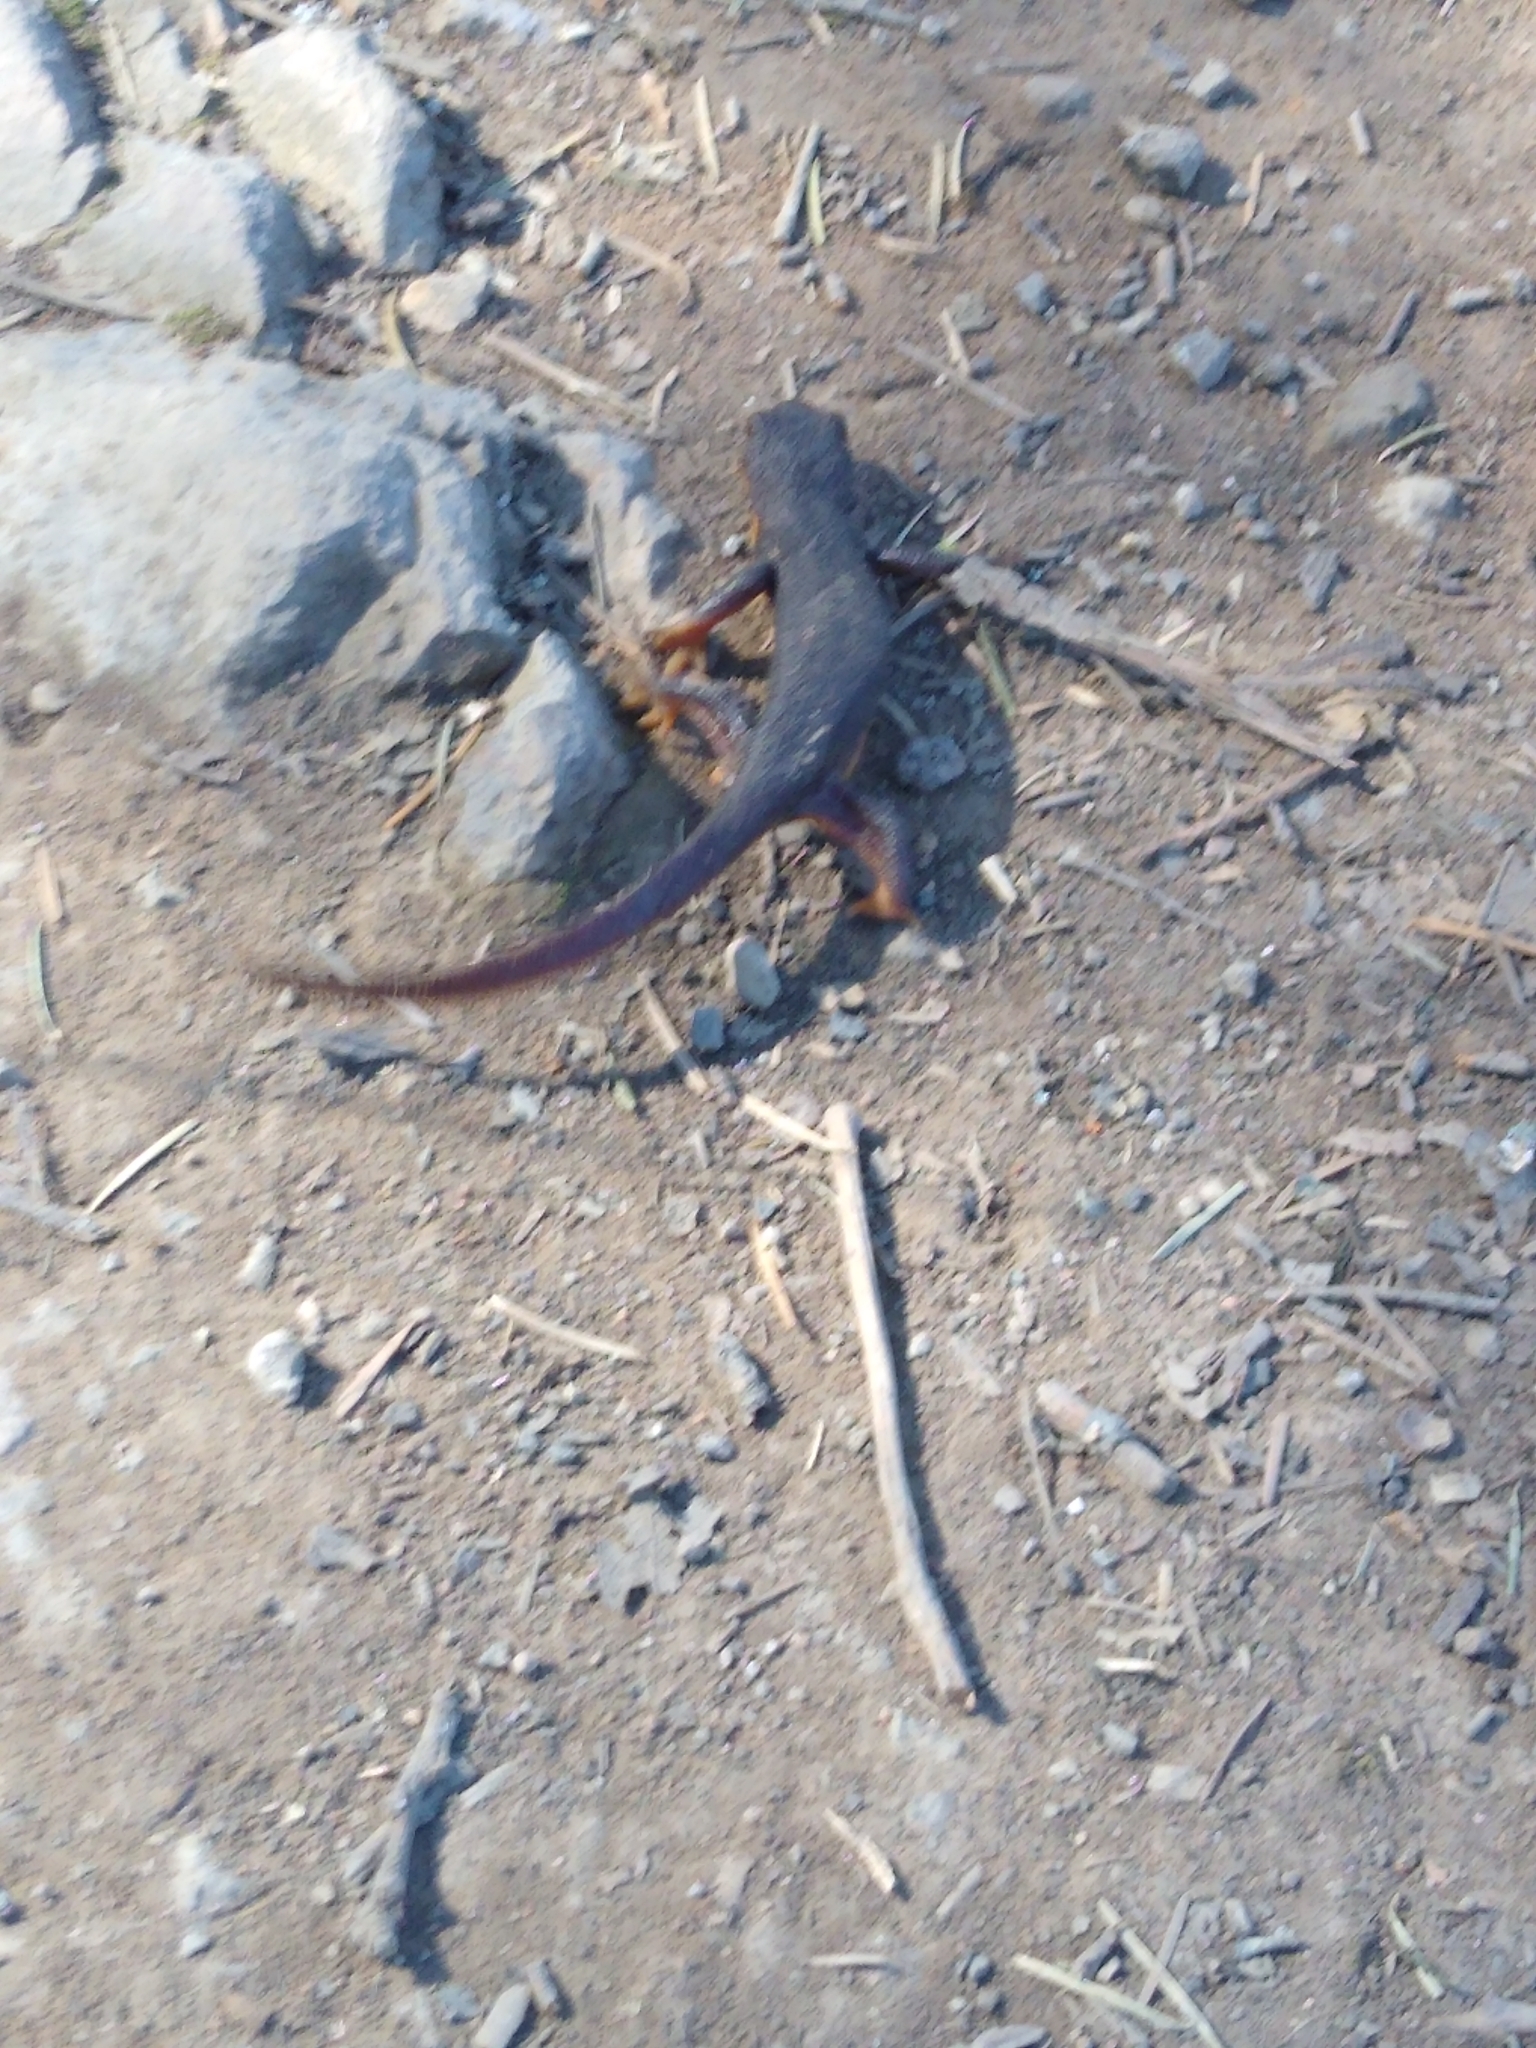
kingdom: Animalia
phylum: Chordata
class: Amphibia
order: Caudata
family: Salamandridae
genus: Taricha
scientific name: Taricha granulosa
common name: Roughskin newt
